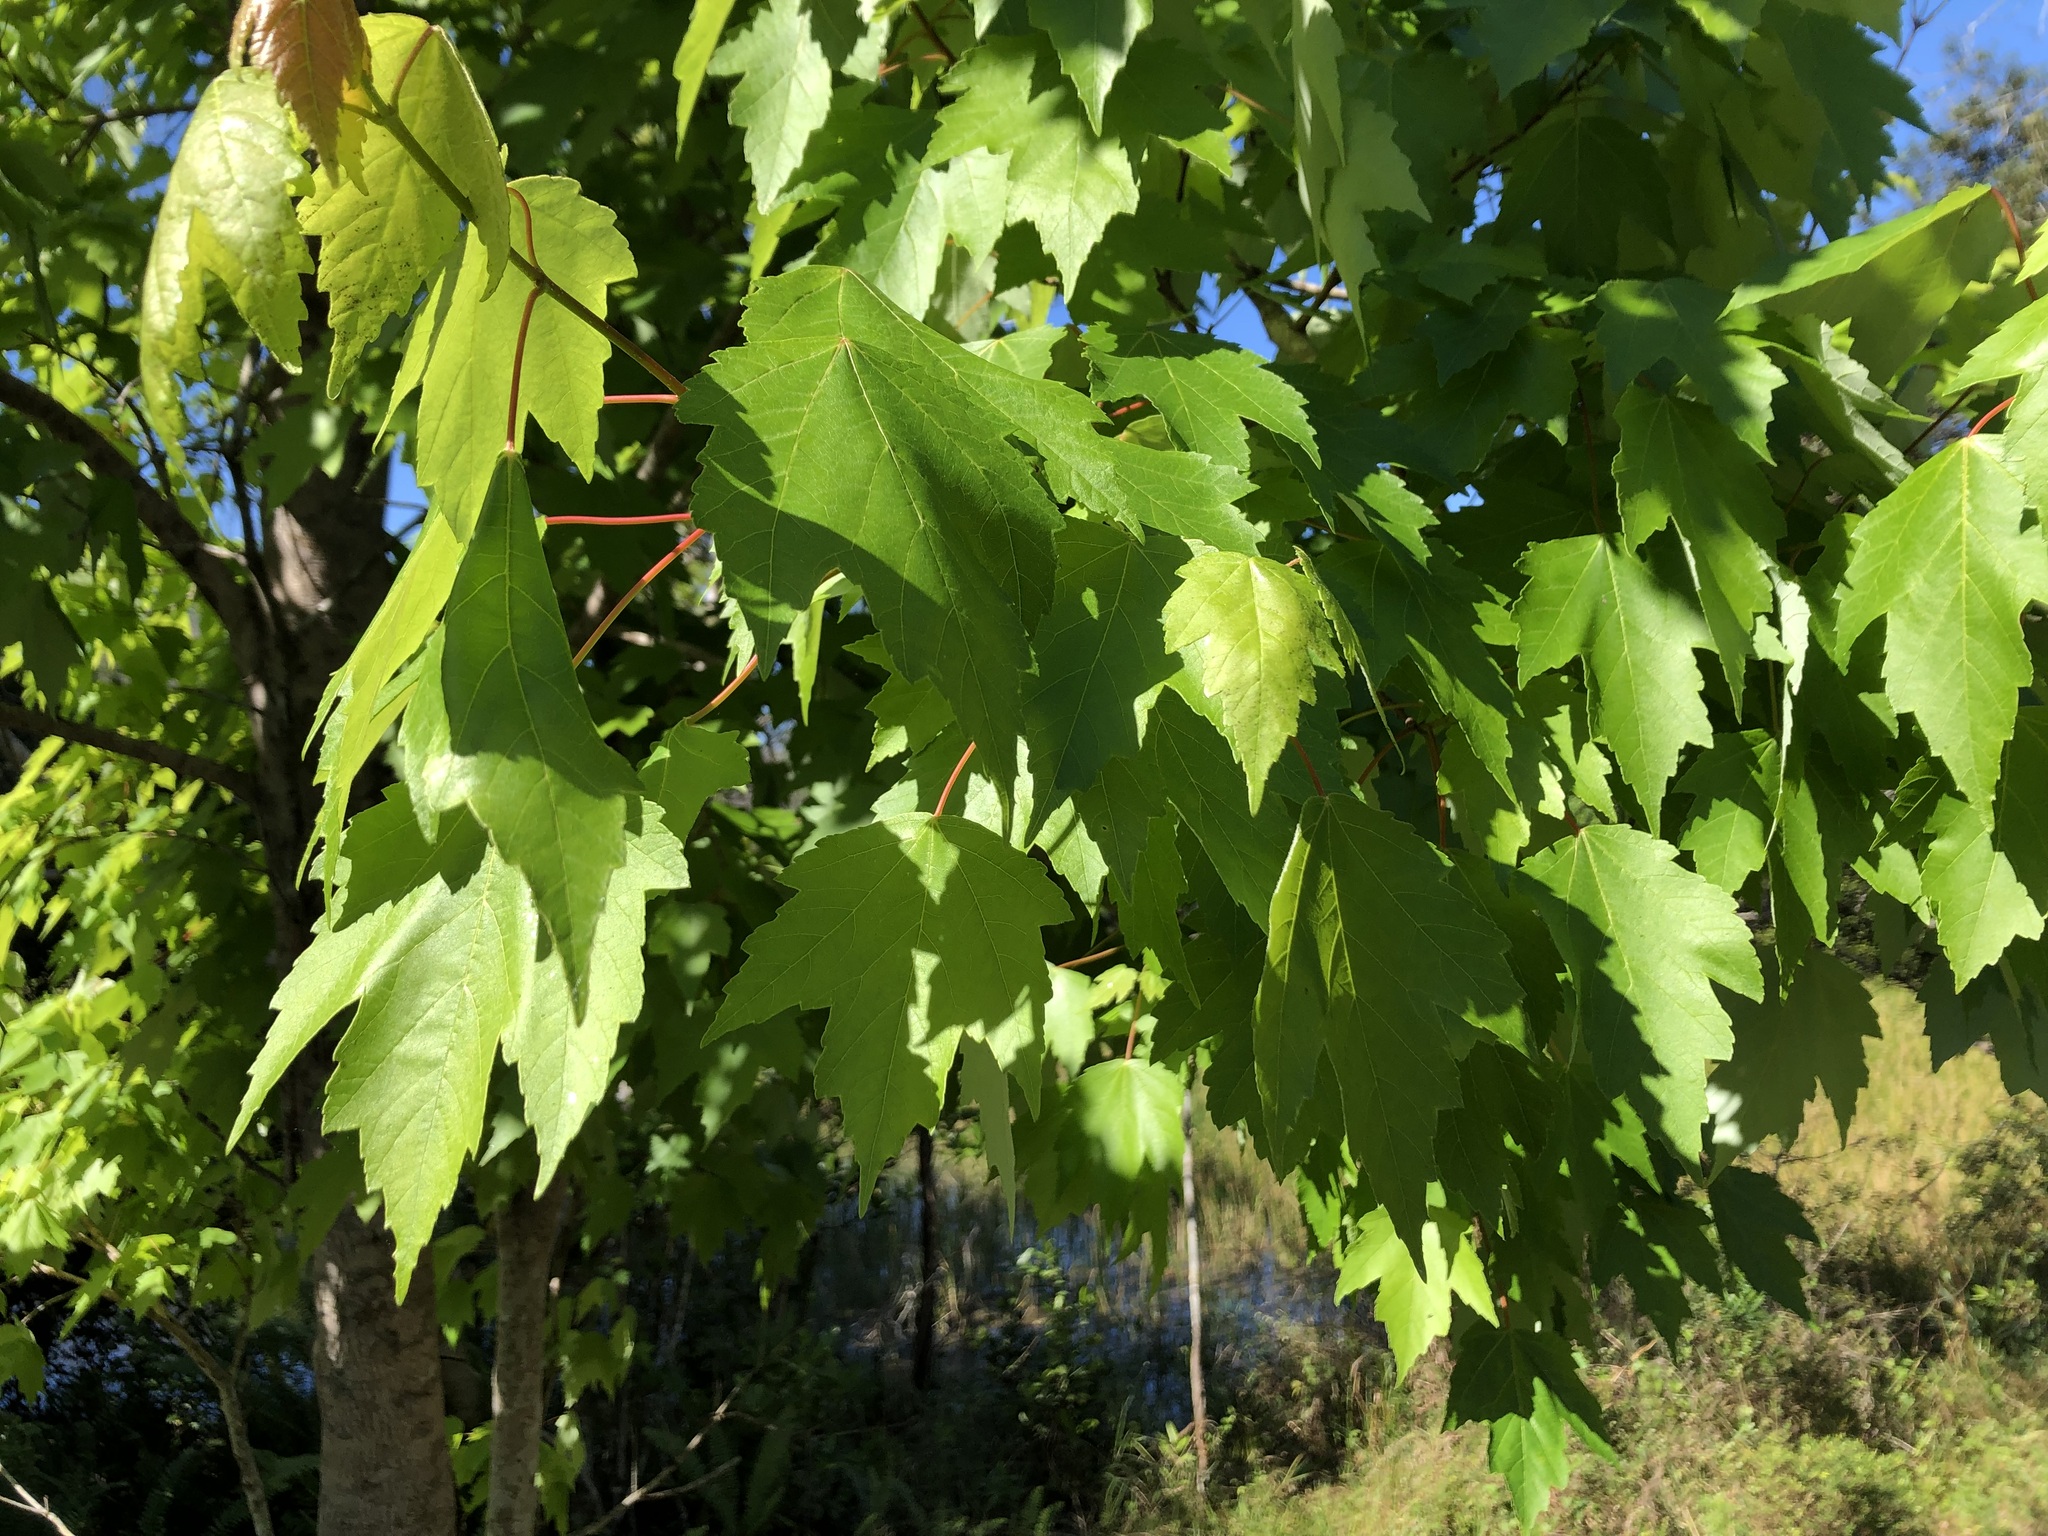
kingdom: Plantae
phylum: Tracheophyta
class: Magnoliopsida
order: Sapindales
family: Sapindaceae
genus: Acer
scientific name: Acer rubrum
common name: Red maple
